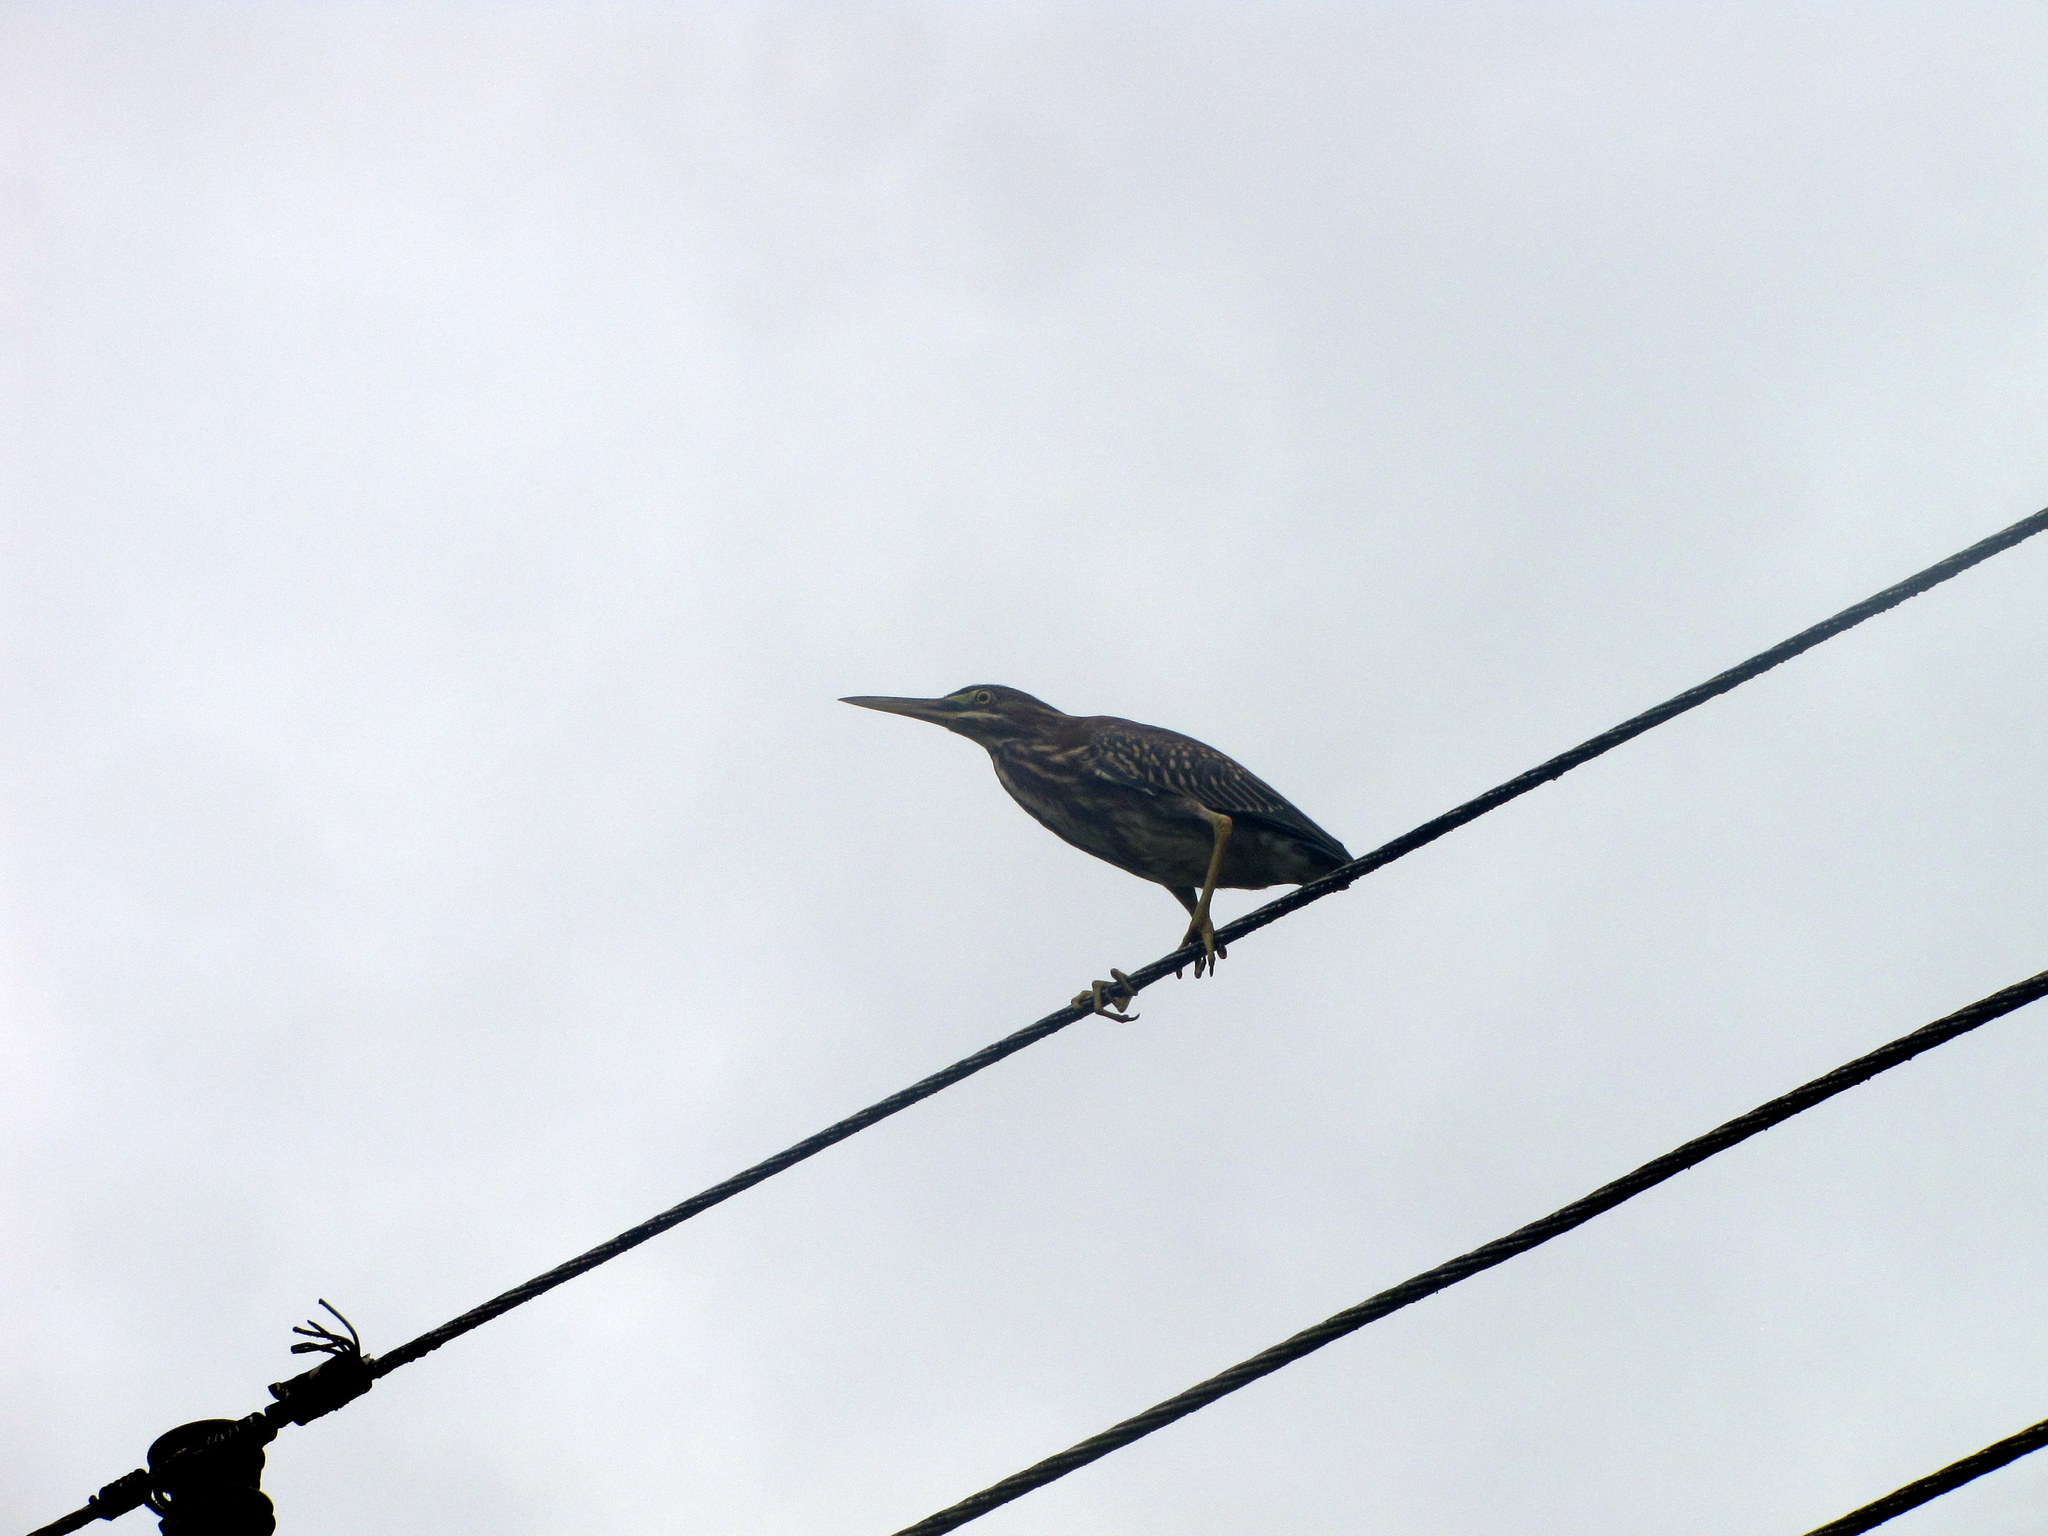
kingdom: Animalia
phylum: Chordata
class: Aves
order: Pelecaniformes
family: Ardeidae
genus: Butorides
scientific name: Butorides virescens
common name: Green heron
